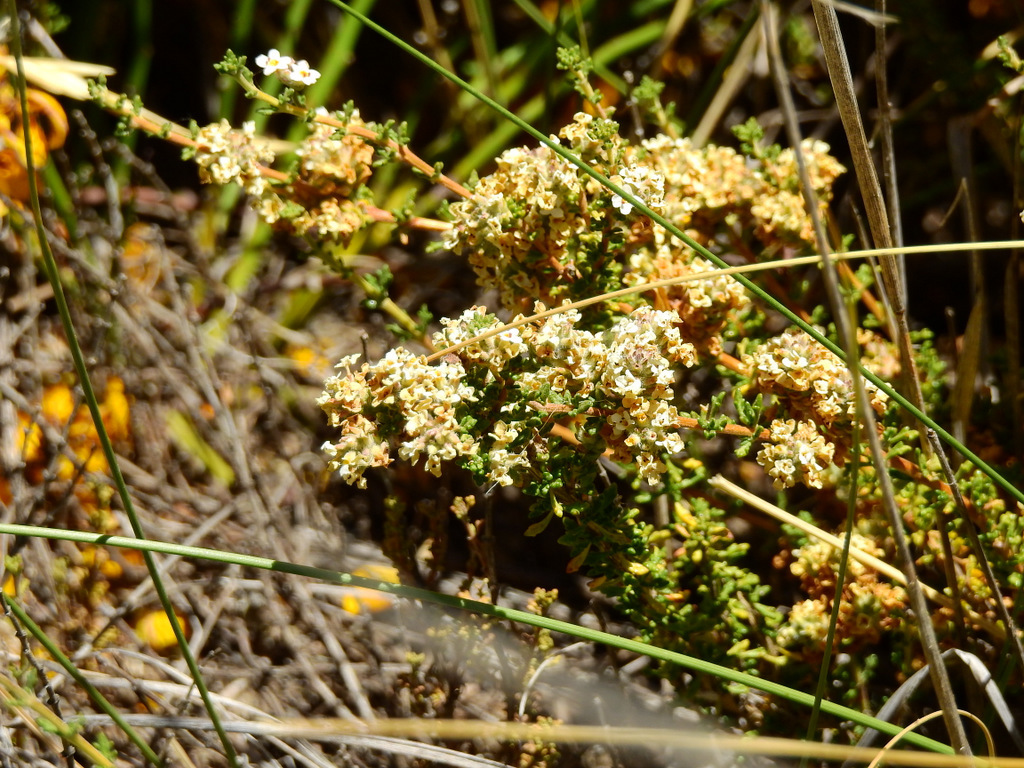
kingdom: Plantae
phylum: Tracheophyta
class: Magnoliopsida
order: Lamiales
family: Verbenaceae
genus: Acantholippia
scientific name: Acantholippia seriphioides
